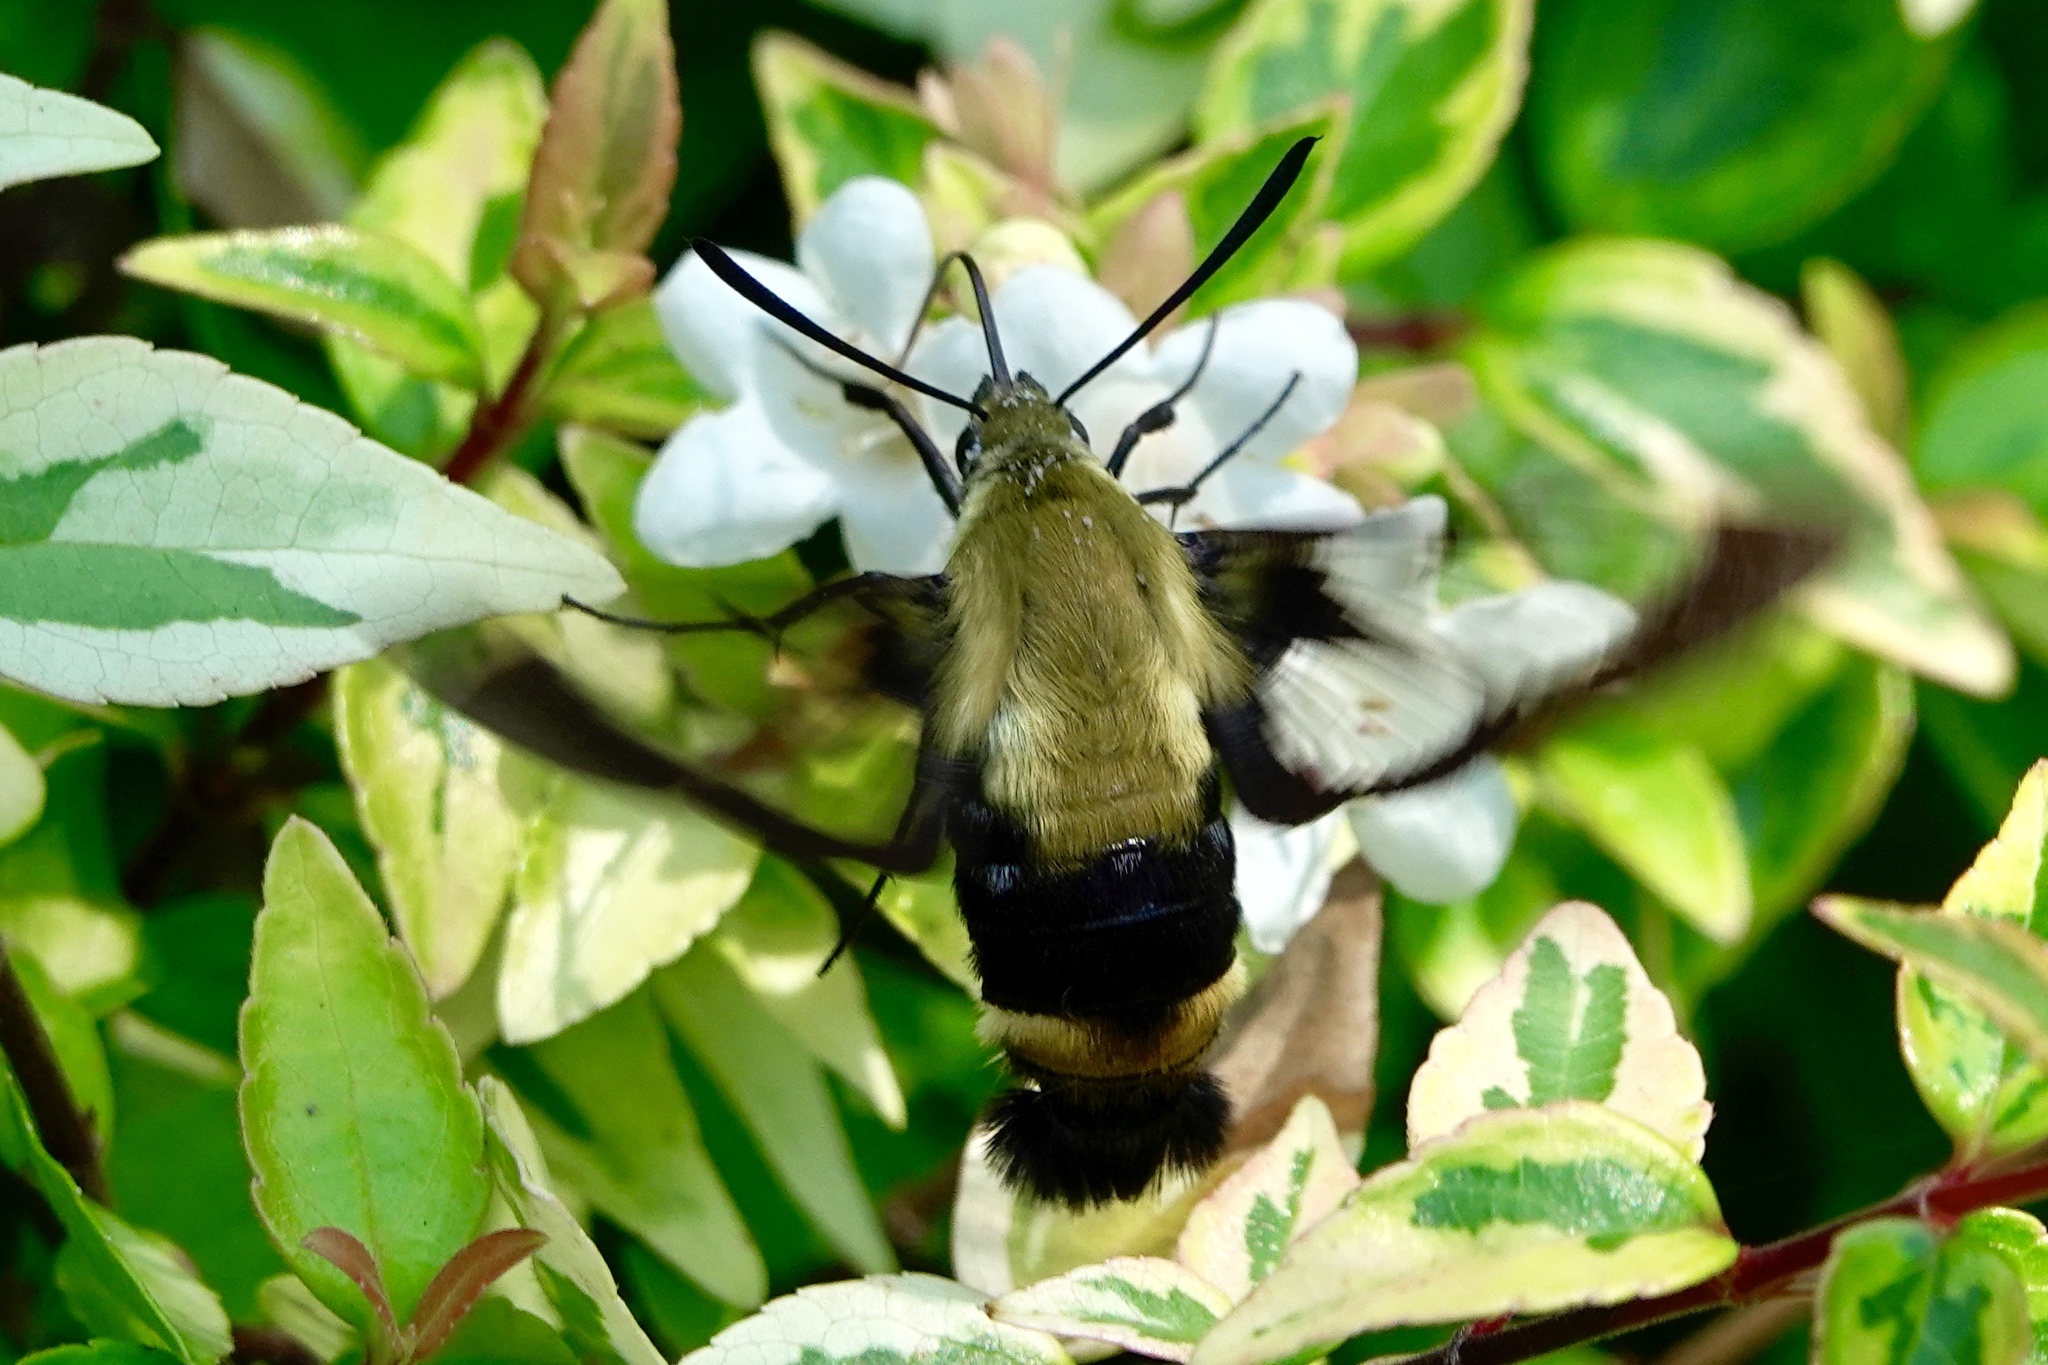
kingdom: Animalia
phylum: Arthropoda
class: Insecta
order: Lepidoptera
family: Sphingidae
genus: Hemaris
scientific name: Hemaris diffinis
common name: Bumblebee moth
